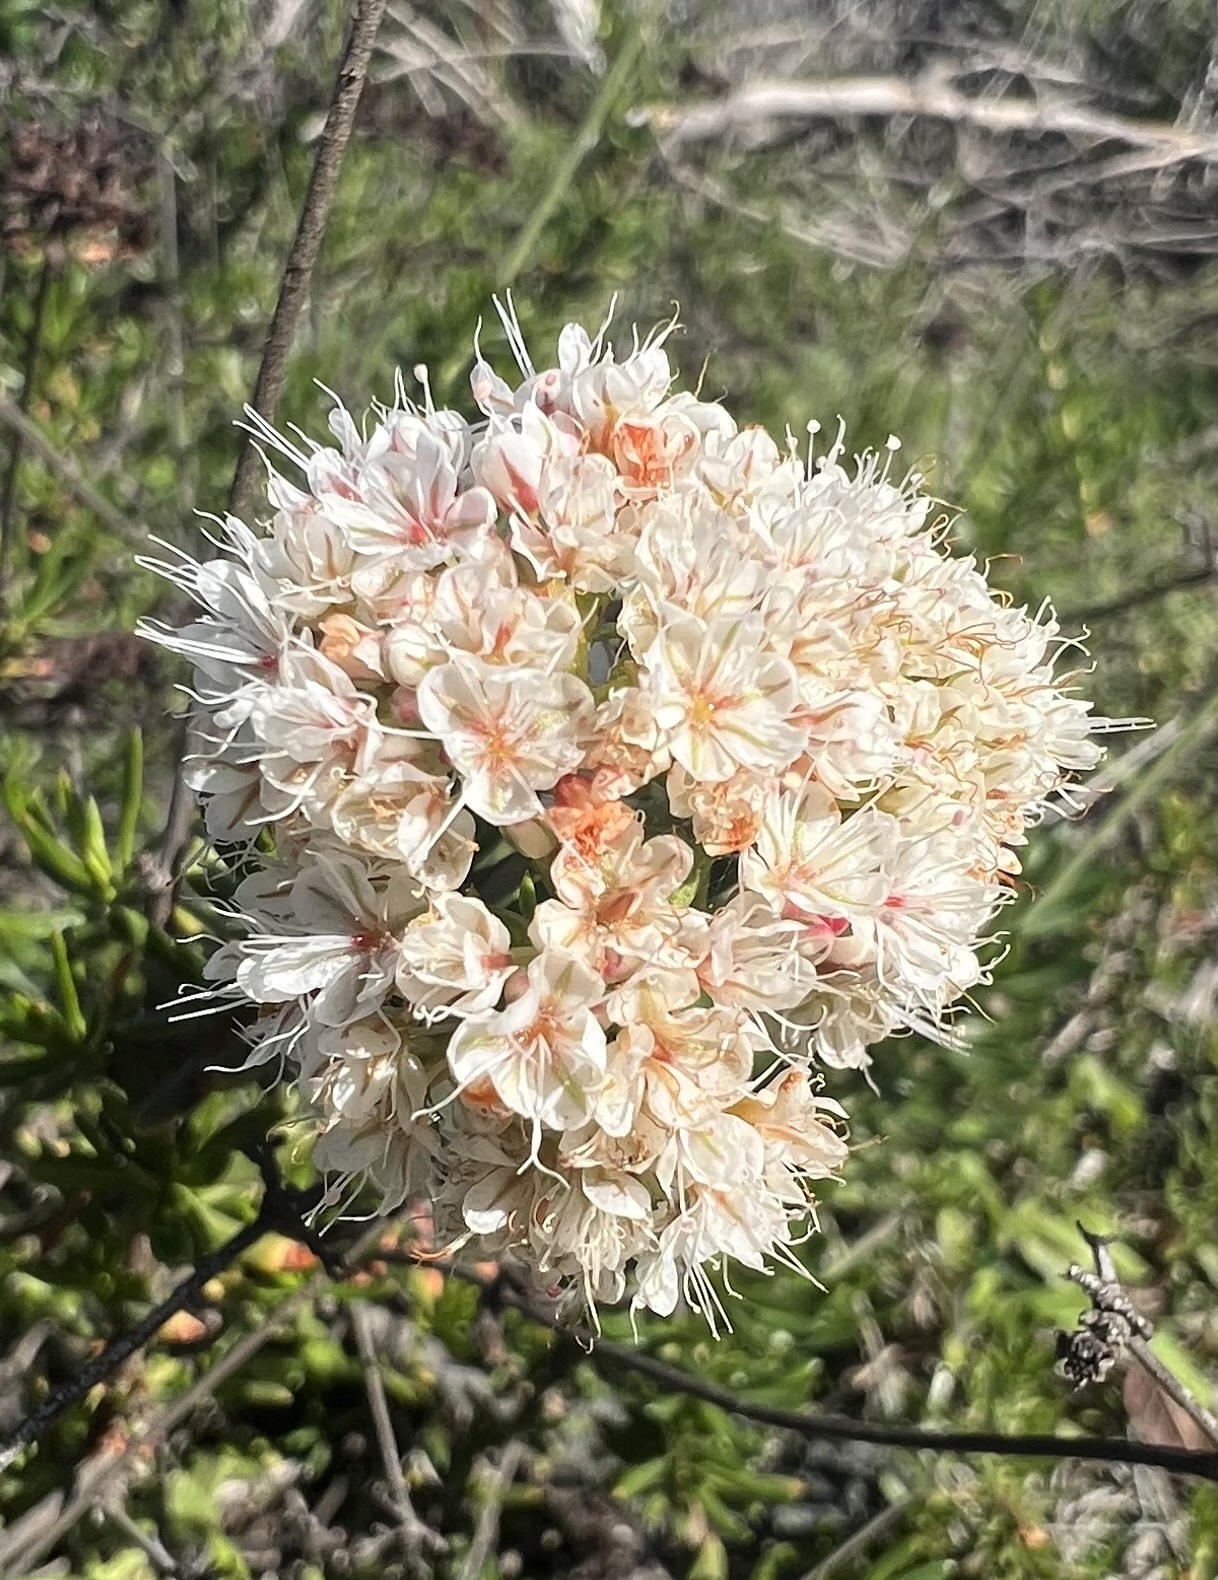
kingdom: Plantae
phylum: Tracheophyta
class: Magnoliopsida
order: Caryophyllales
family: Polygonaceae
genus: Eriogonum
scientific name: Eriogonum fasciculatum
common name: California wild buckwheat
